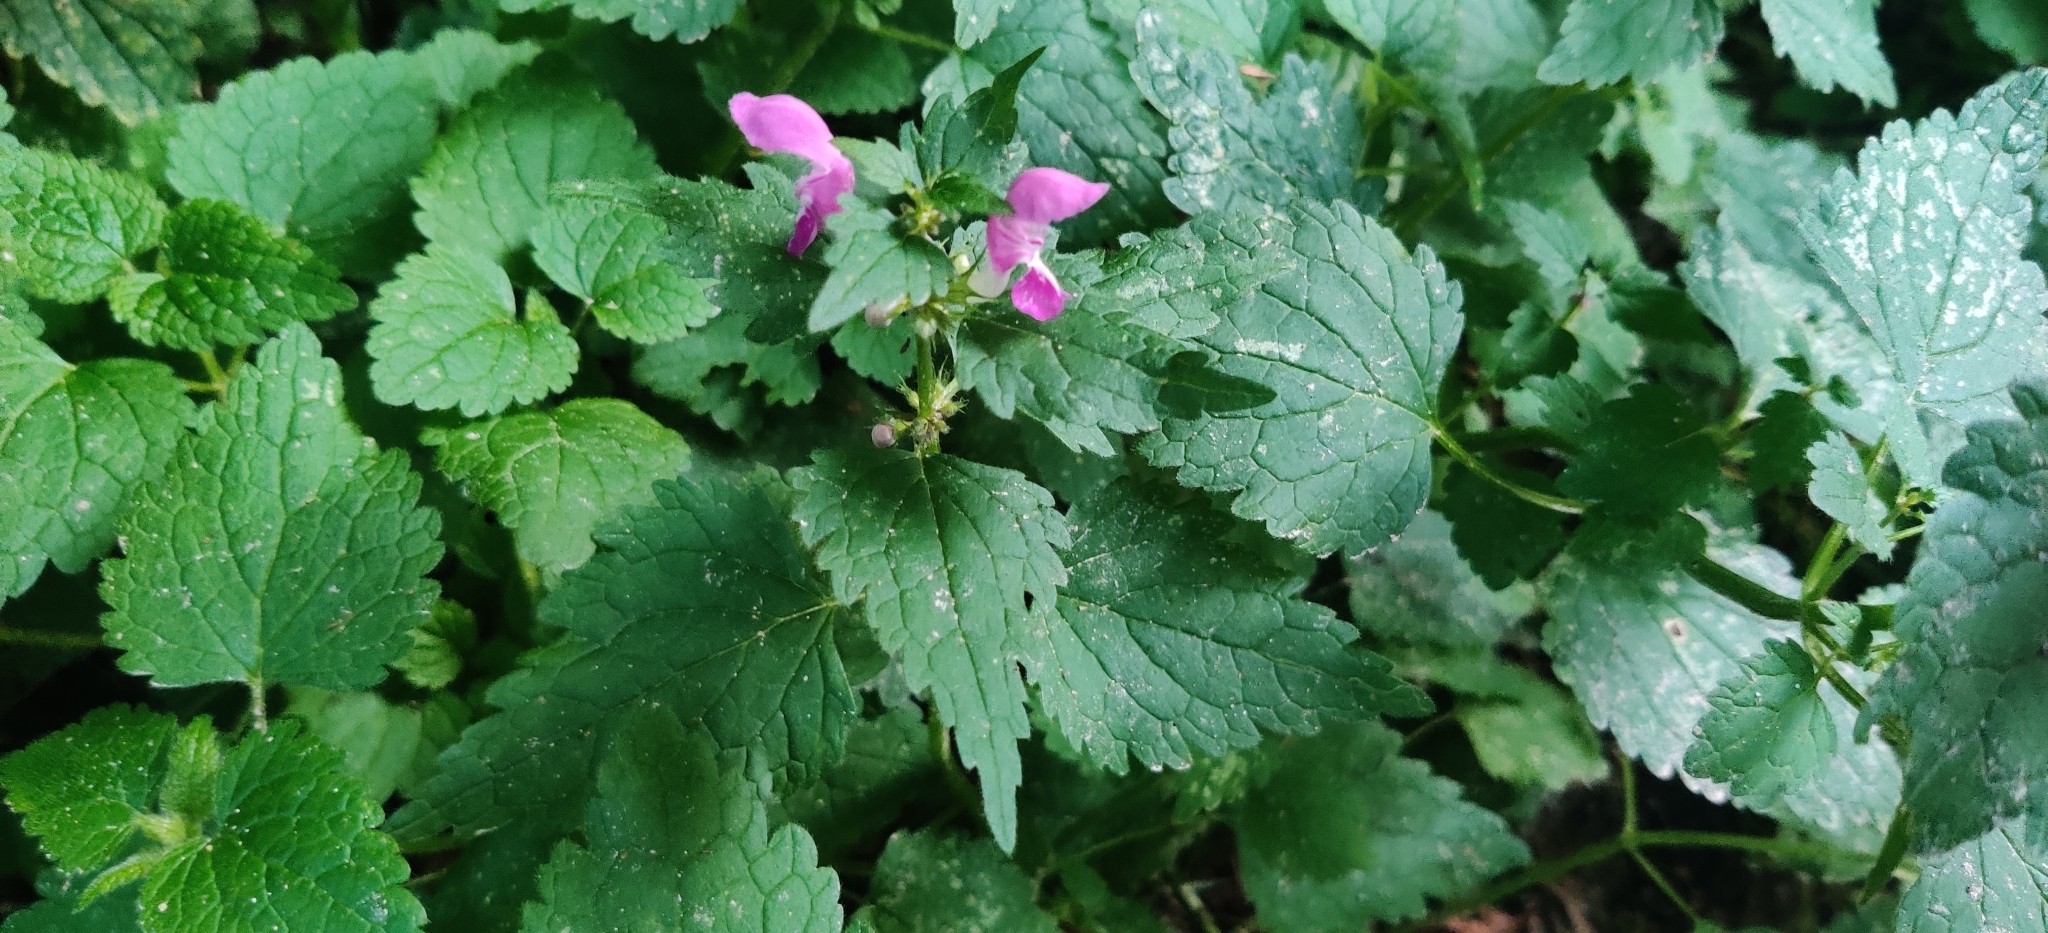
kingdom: Plantae
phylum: Tracheophyta
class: Magnoliopsida
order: Lamiales
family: Lamiaceae
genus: Lamium
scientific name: Lamium maculatum
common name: Spotted dead-nettle
